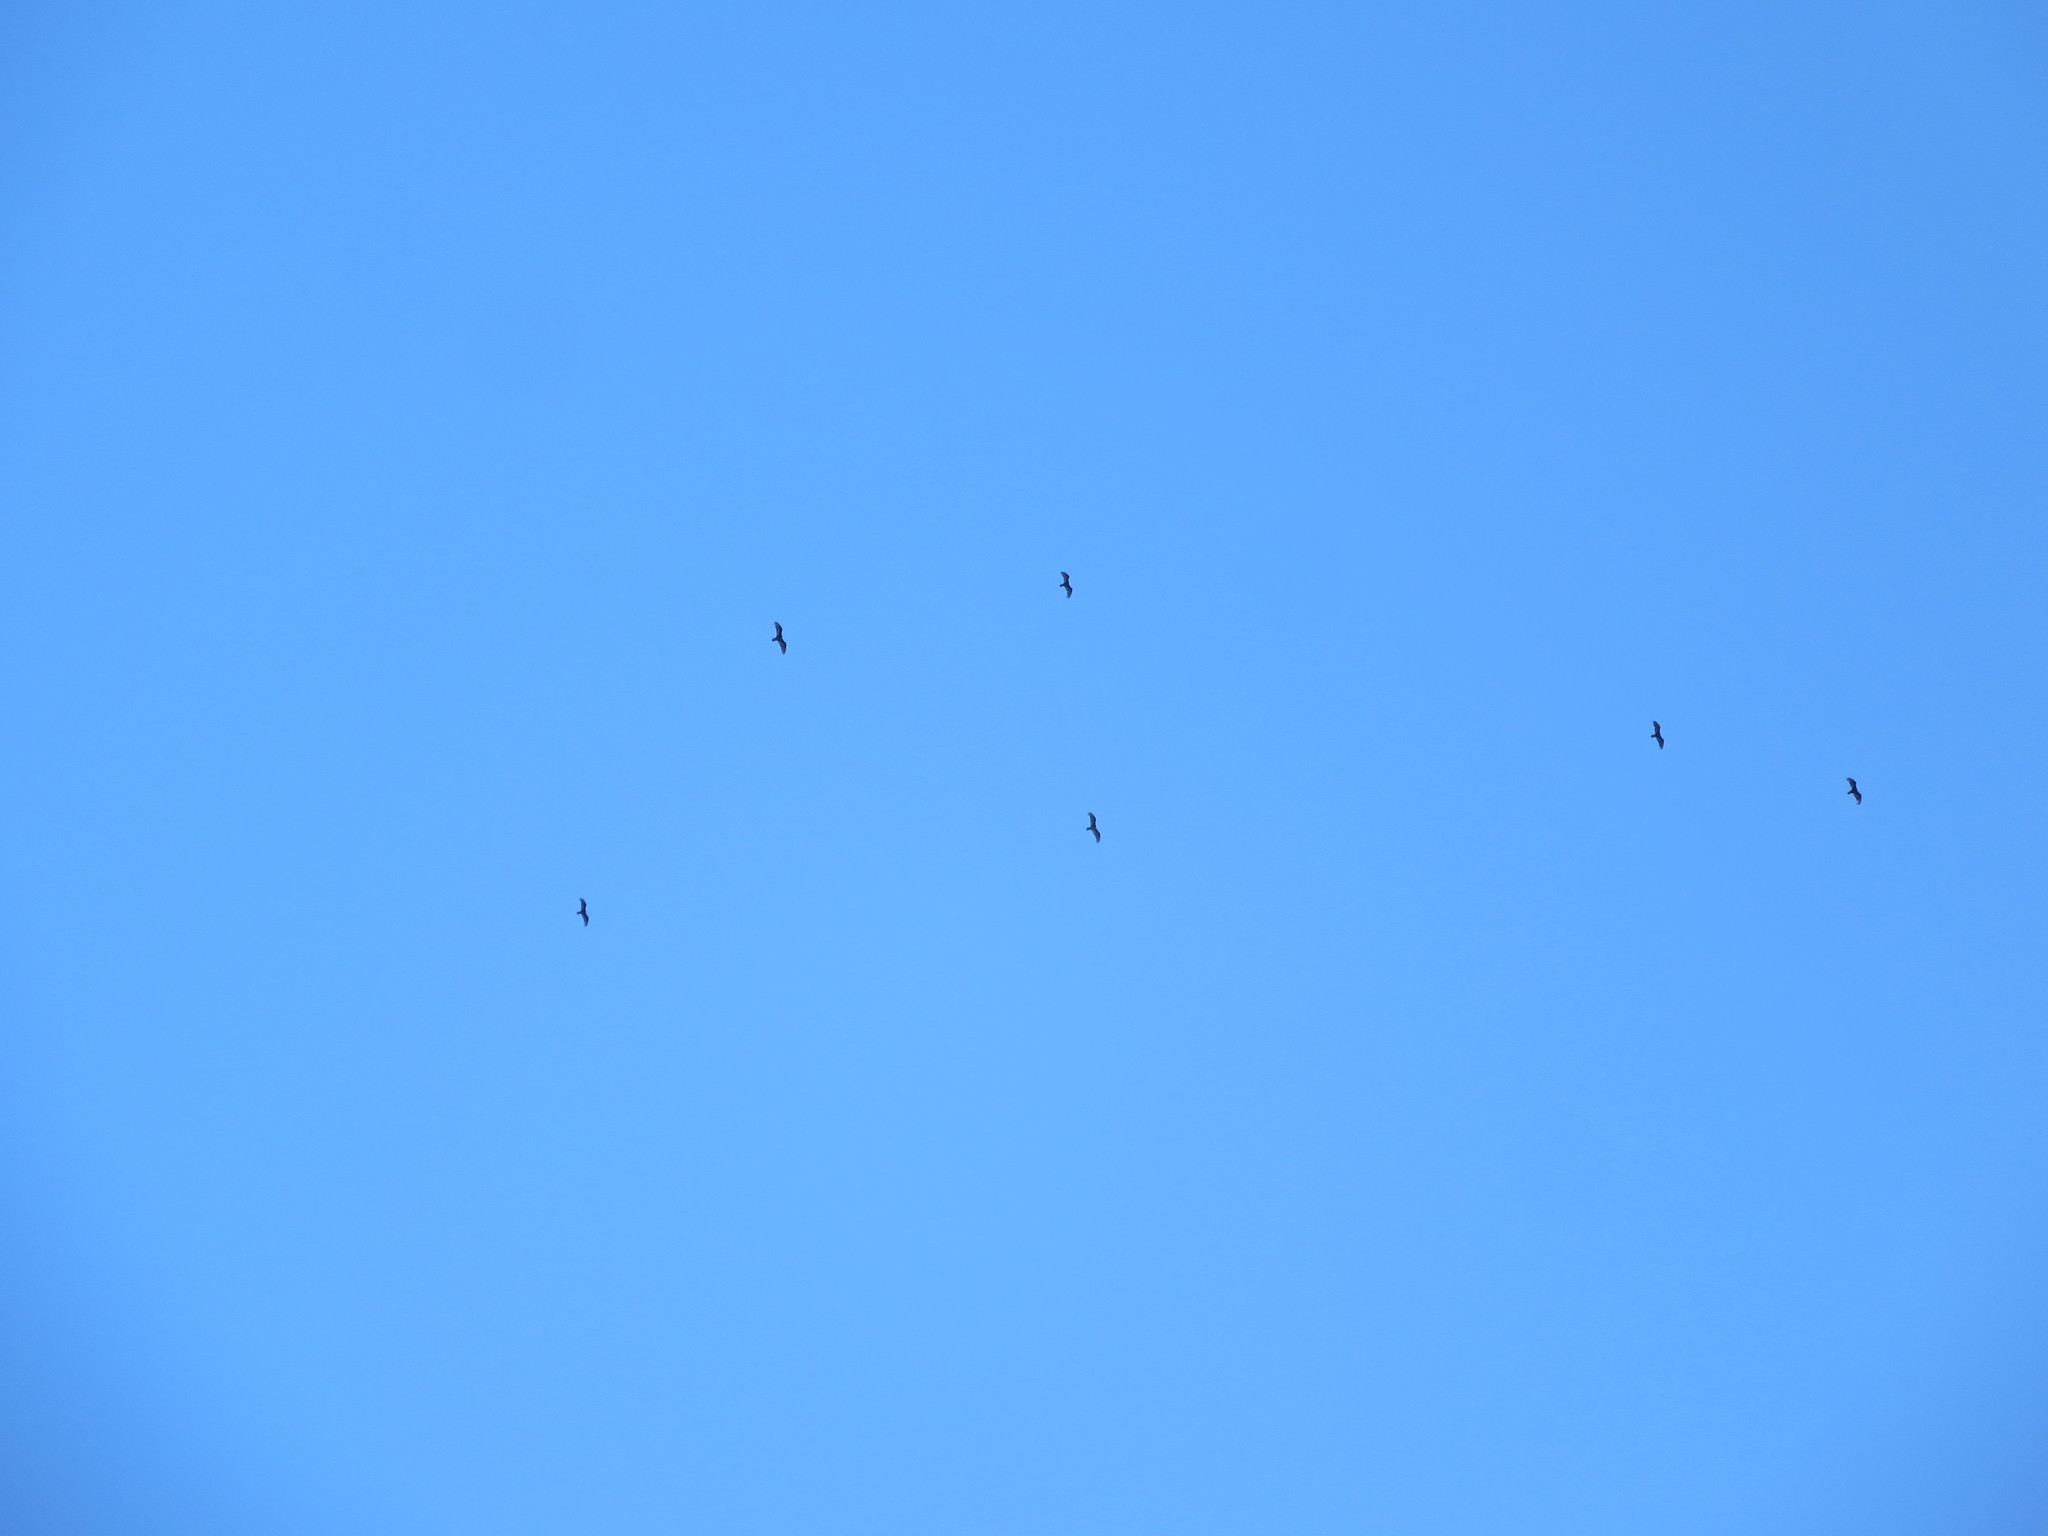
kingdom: Animalia
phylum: Chordata
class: Aves
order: Accipitriformes
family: Cathartidae
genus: Cathartes
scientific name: Cathartes aura
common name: Turkey vulture
